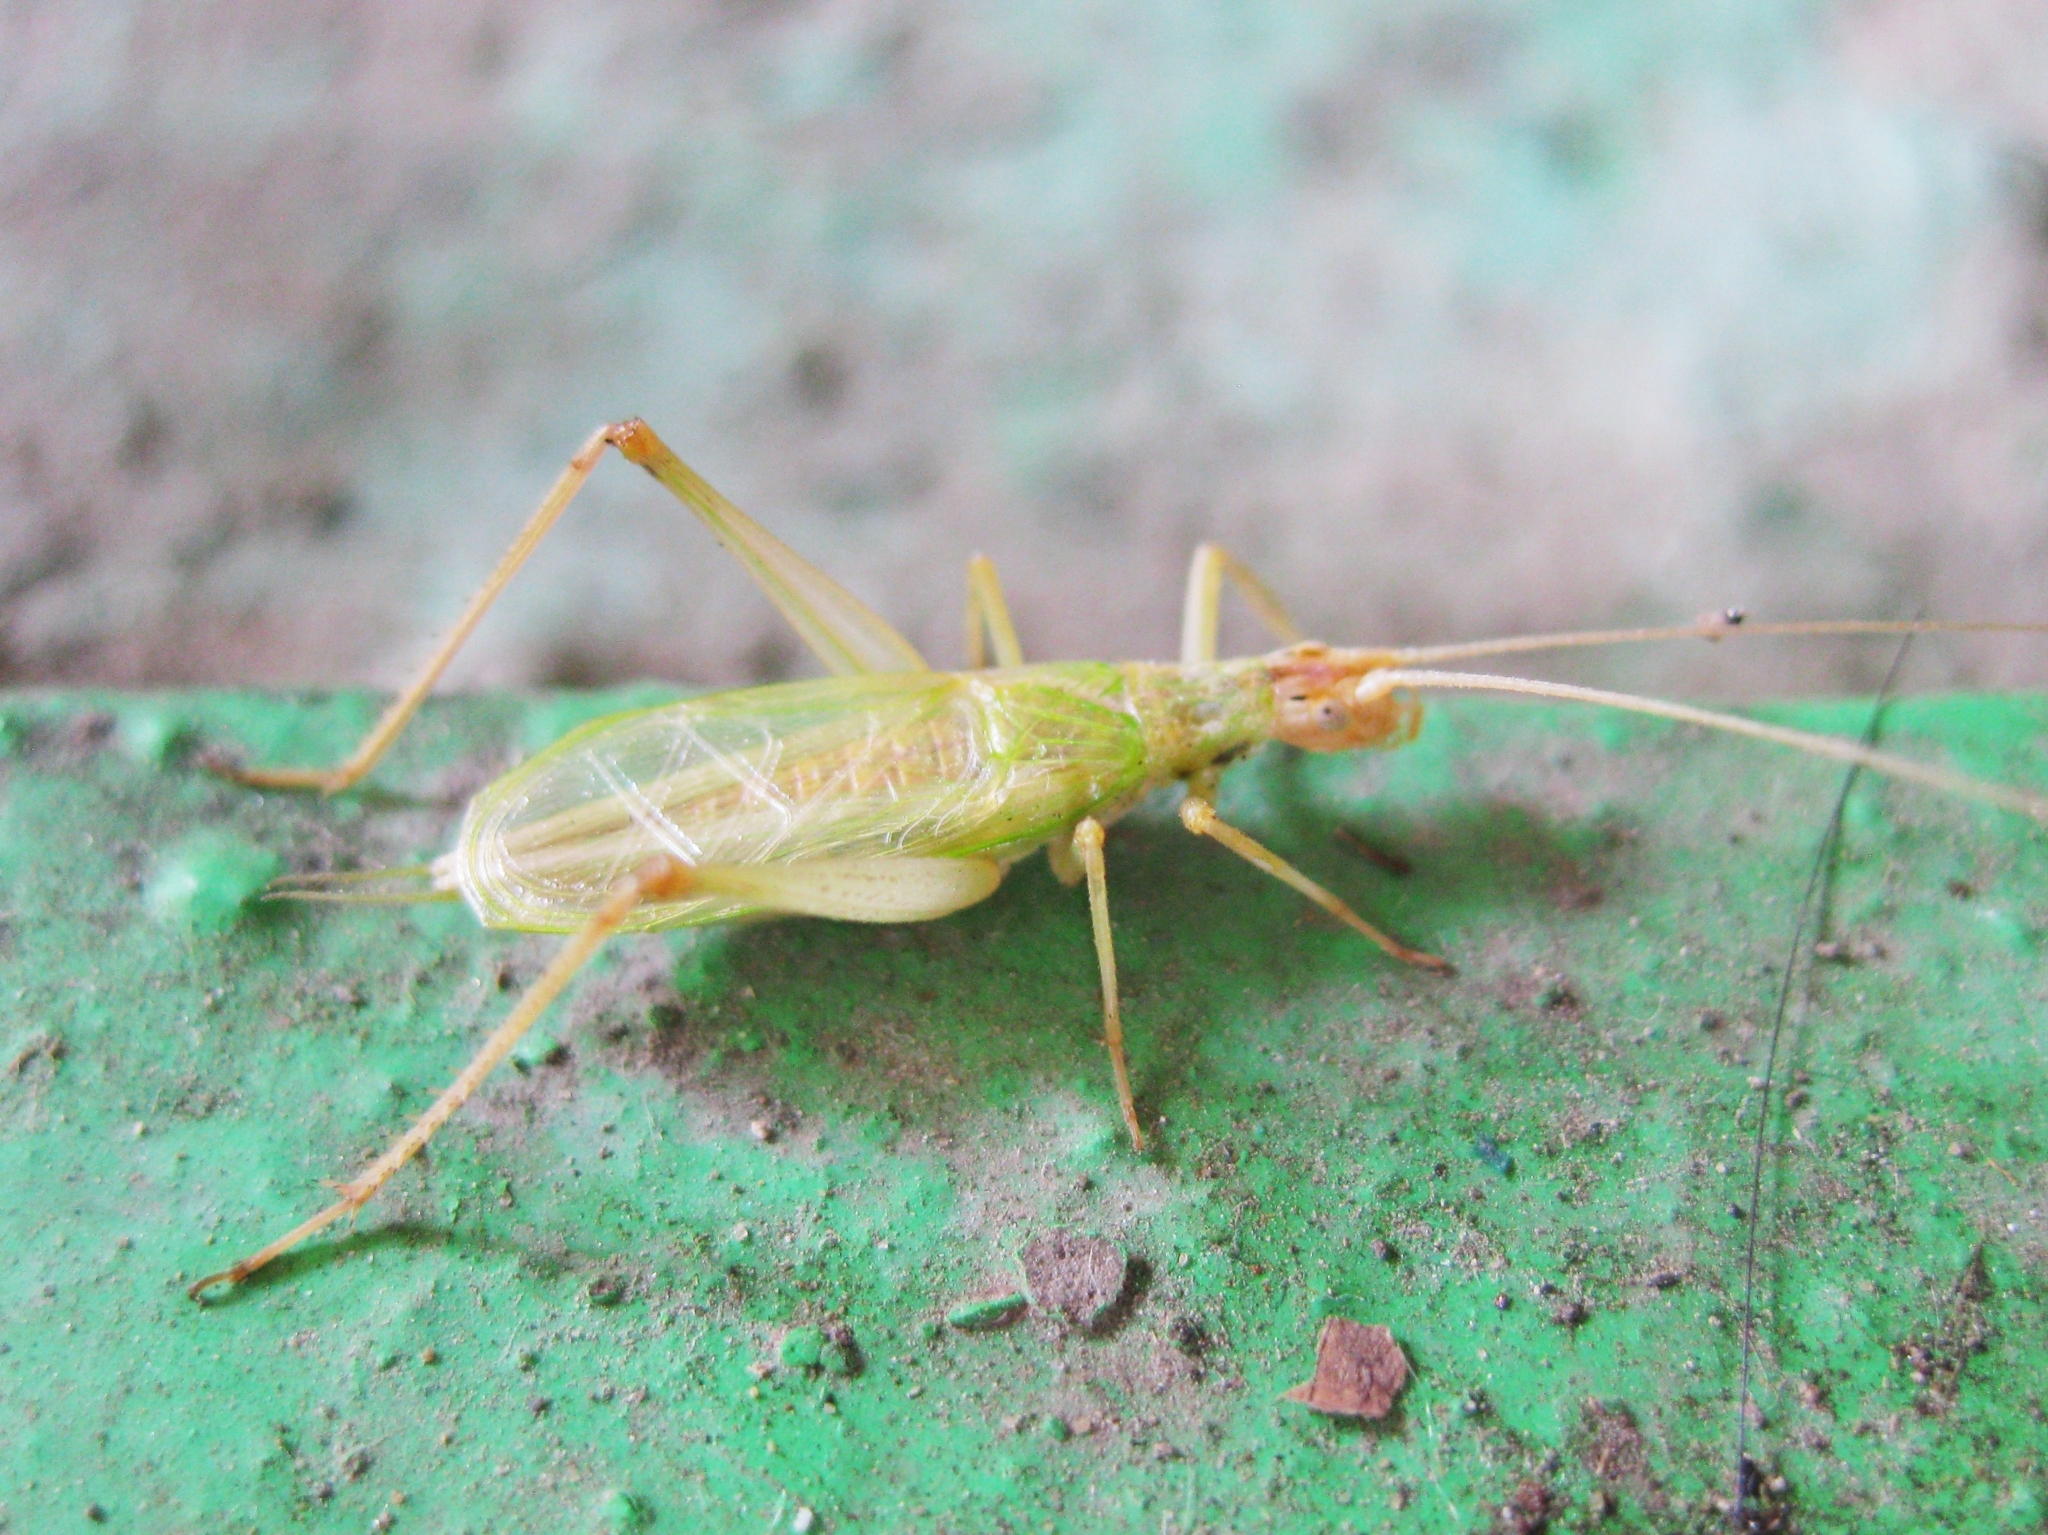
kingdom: Animalia
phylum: Arthropoda
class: Insecta
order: Orthoptera
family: Gryllidae
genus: Oecanthus
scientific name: Oecanthus pellucens
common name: Tree-cricket
